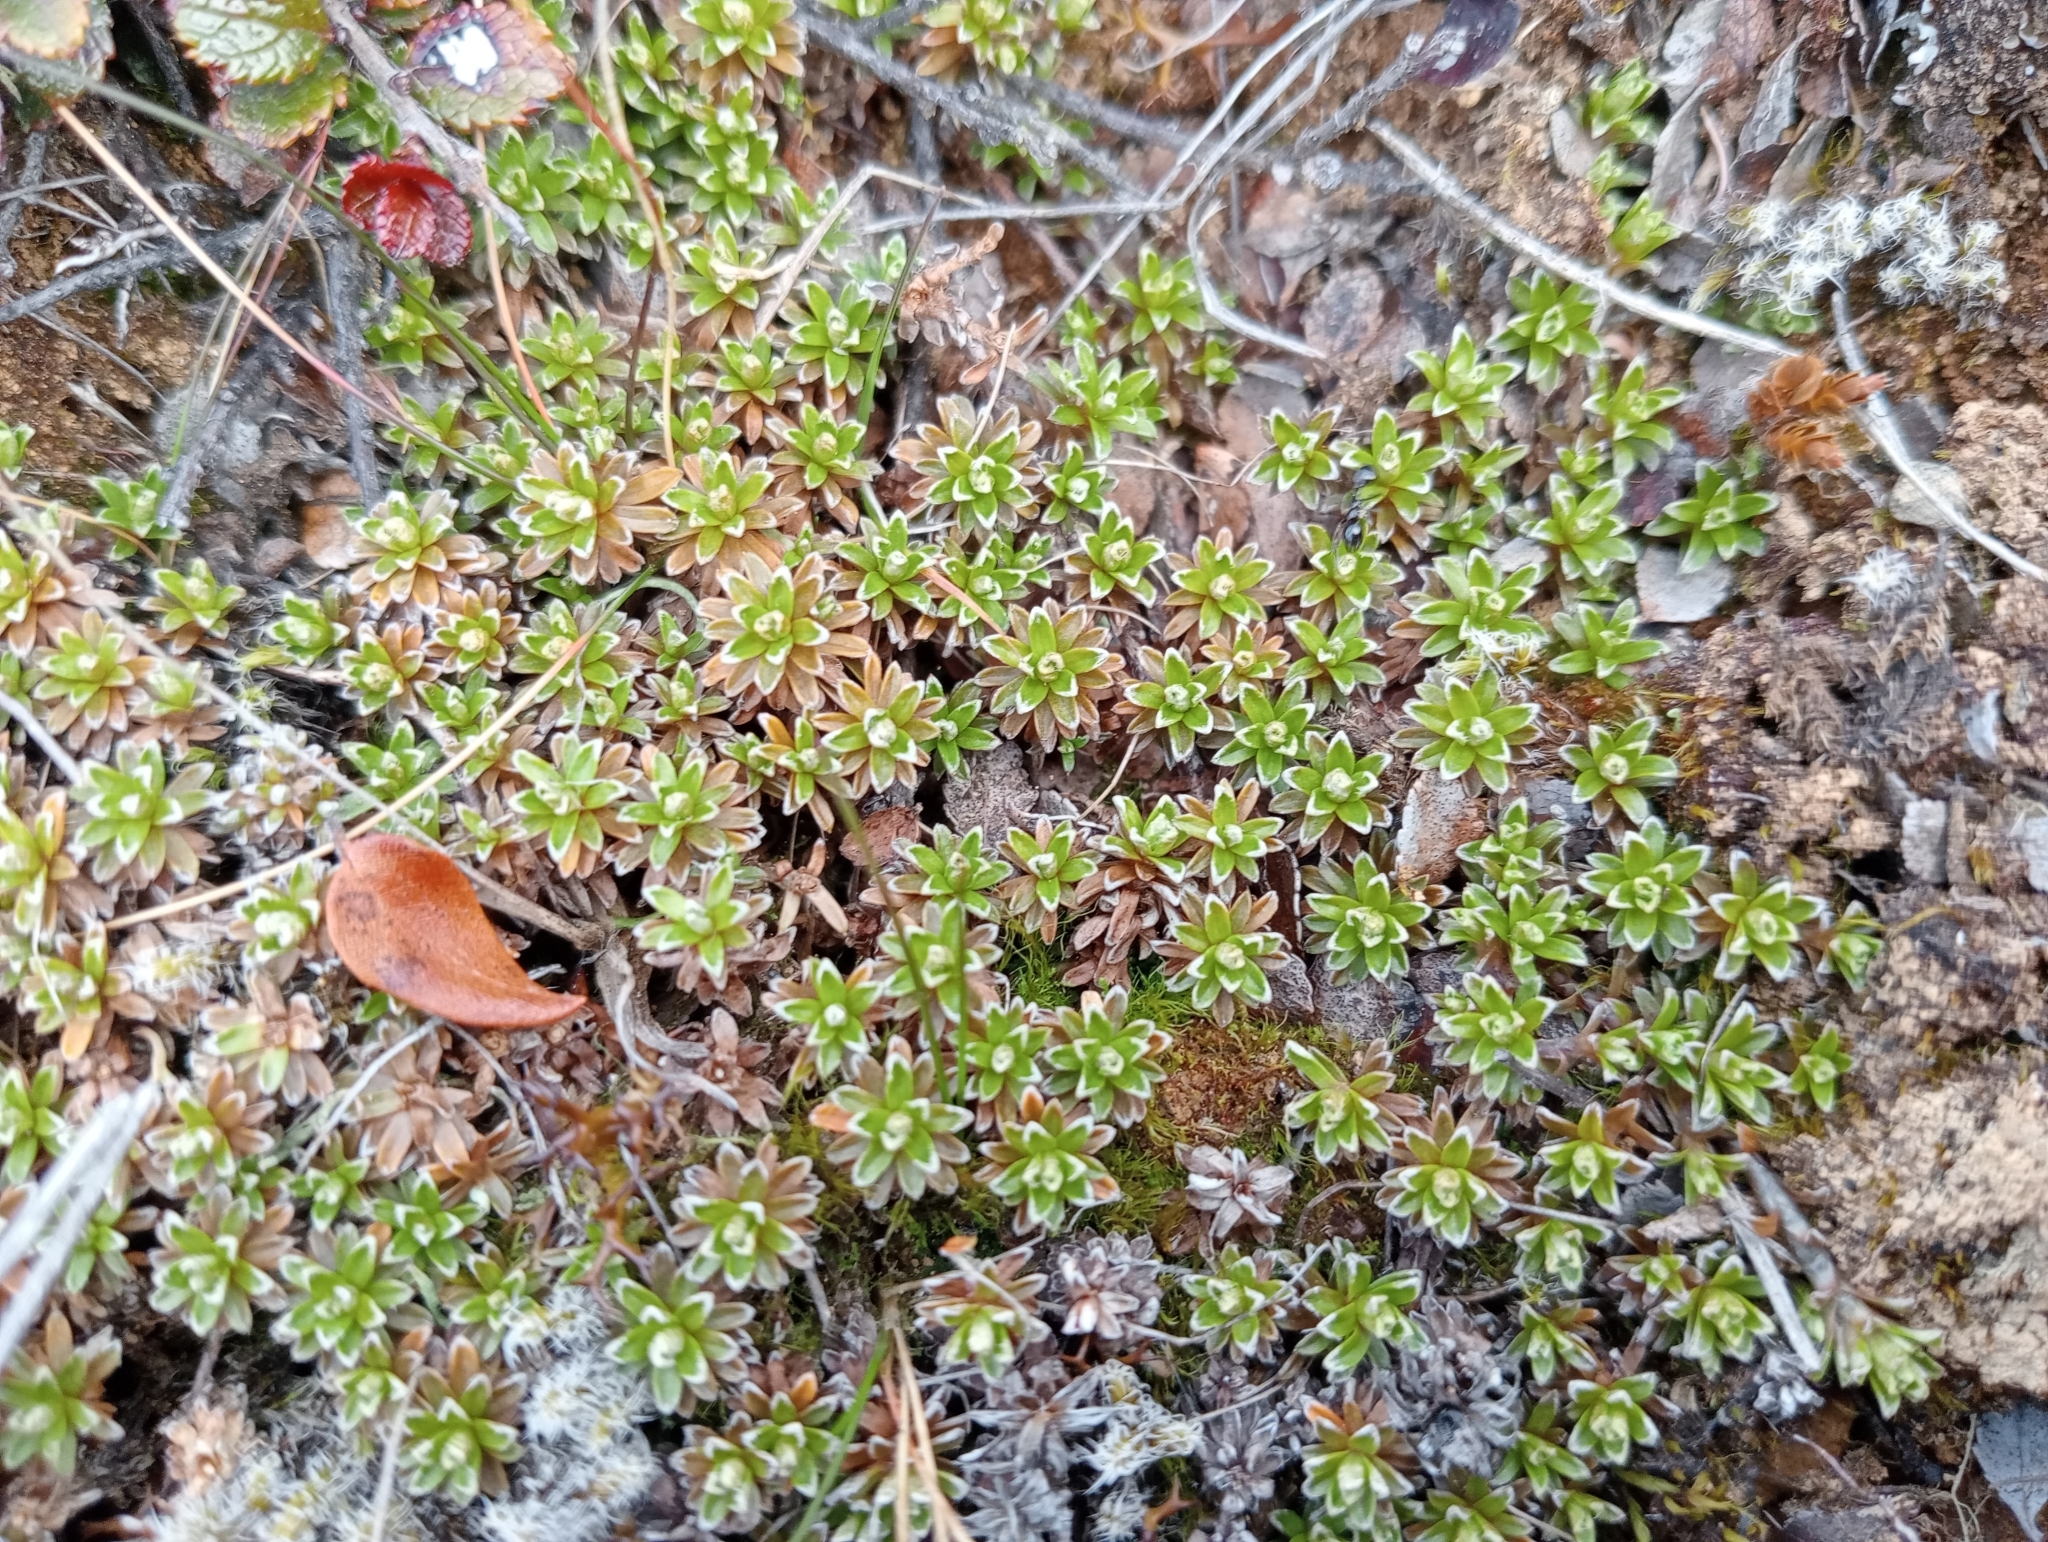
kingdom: Plantae
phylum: Tracheophyta
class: Magnoliopsida
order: Asterales
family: Asteraceae
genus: Raoulia
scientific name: Raoulia subsericea
